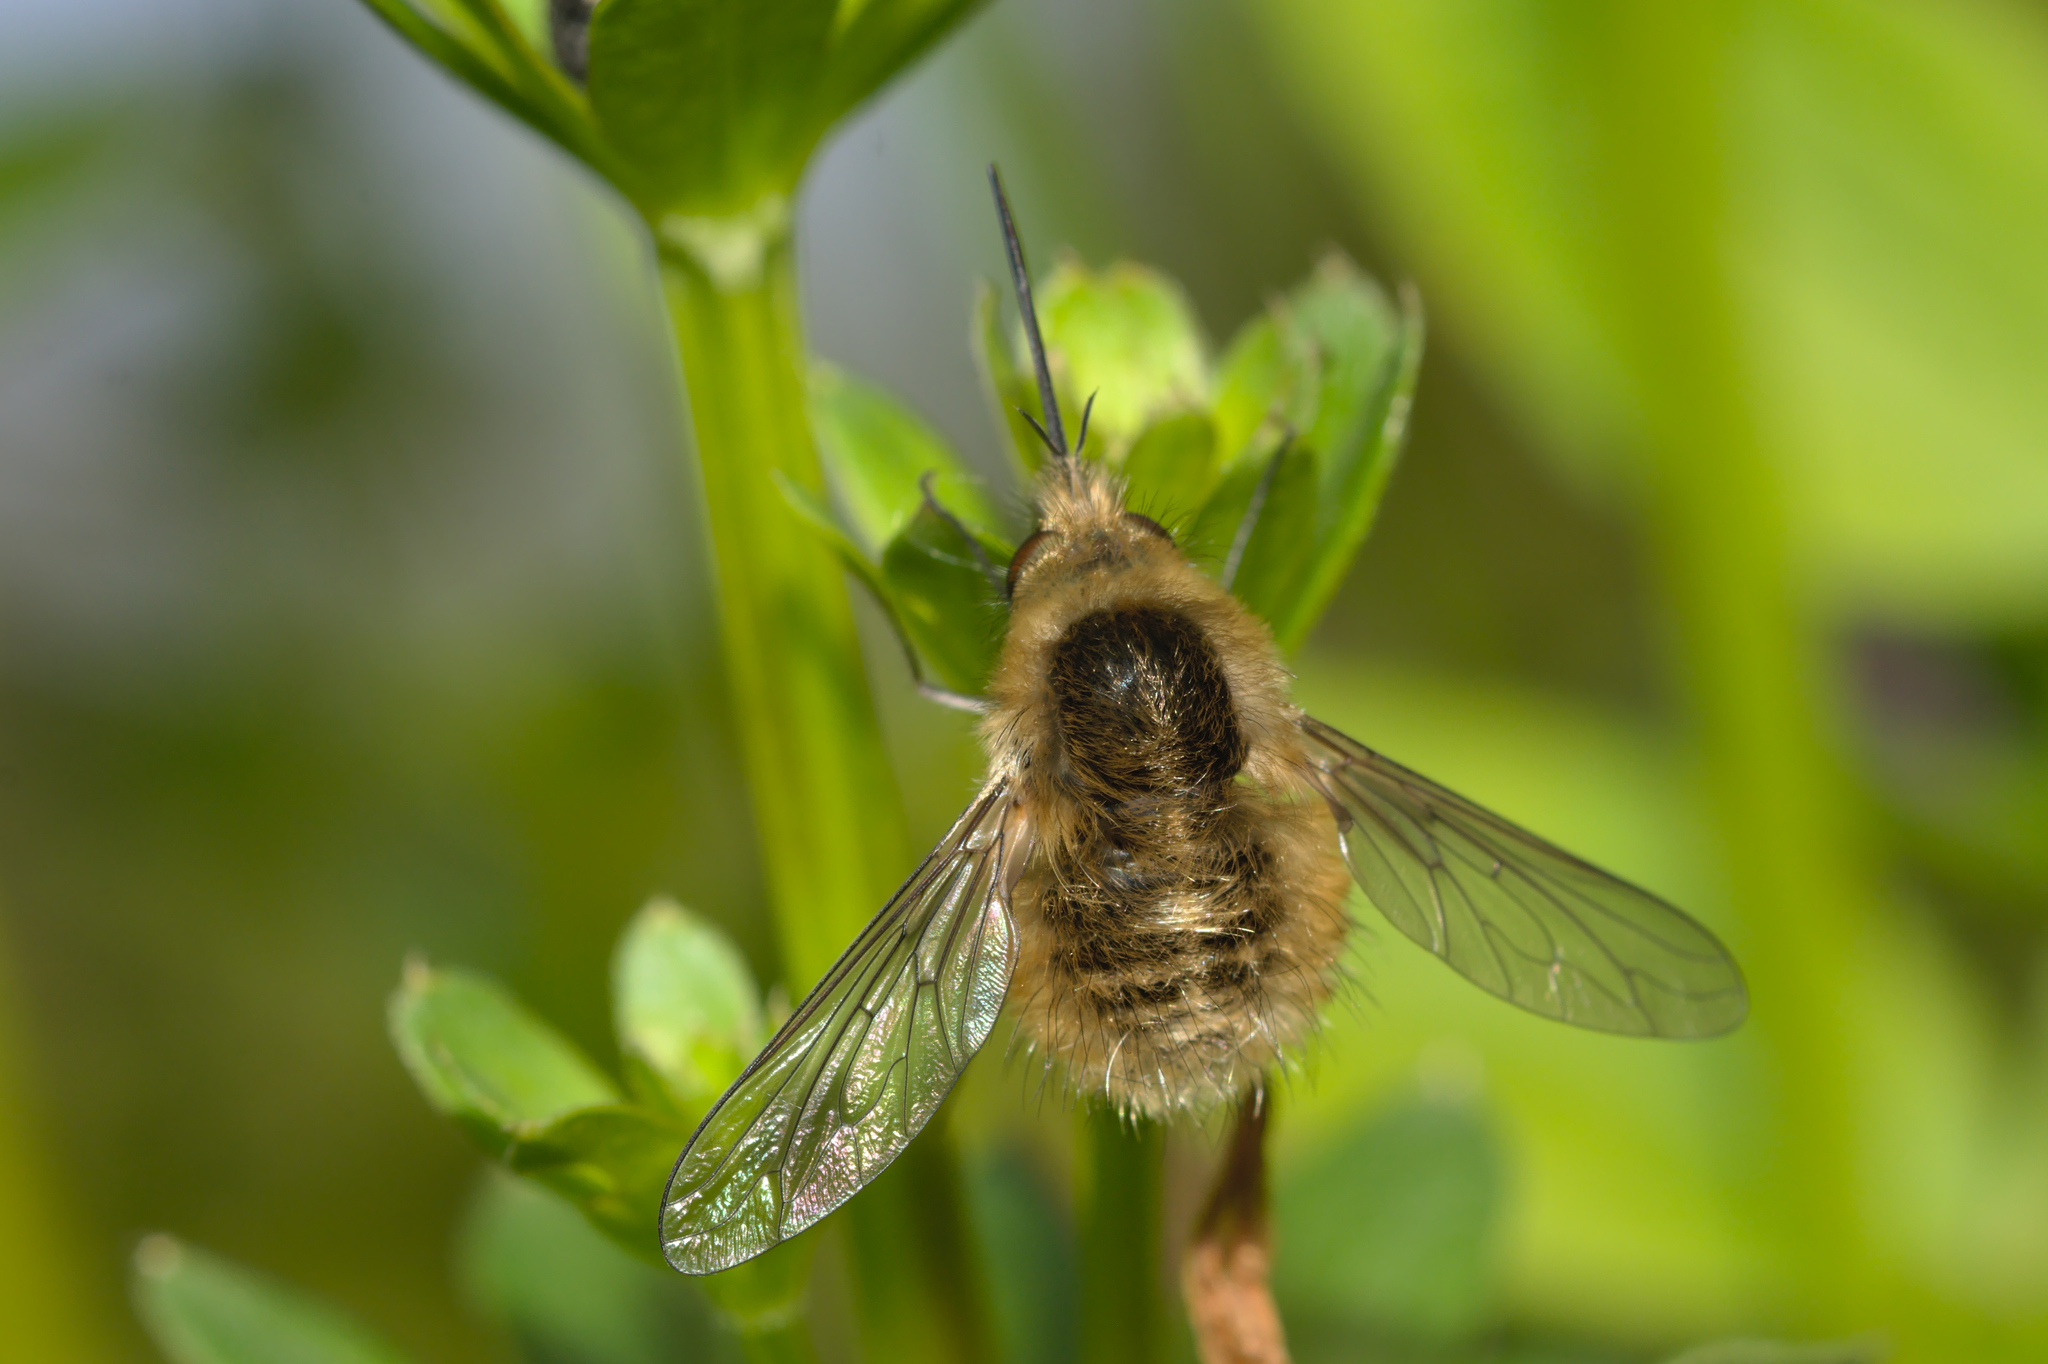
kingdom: Animalia
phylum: Arthropoda
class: Insecta
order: Diptera
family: Bombyliidae
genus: Bombylius
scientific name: Bombylius venosus
